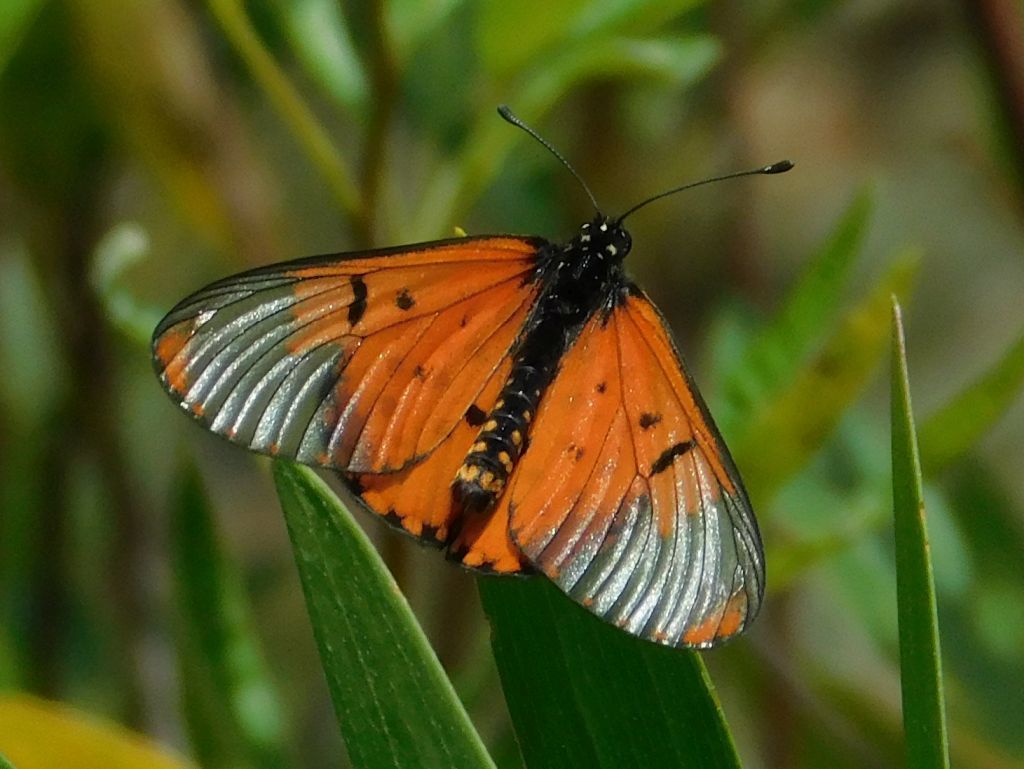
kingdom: Animalia
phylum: Arthropoda
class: Insecta
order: Lepidoptera
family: Nymphalidae
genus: Acraea
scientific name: Acraea horta
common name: Garden acraea
